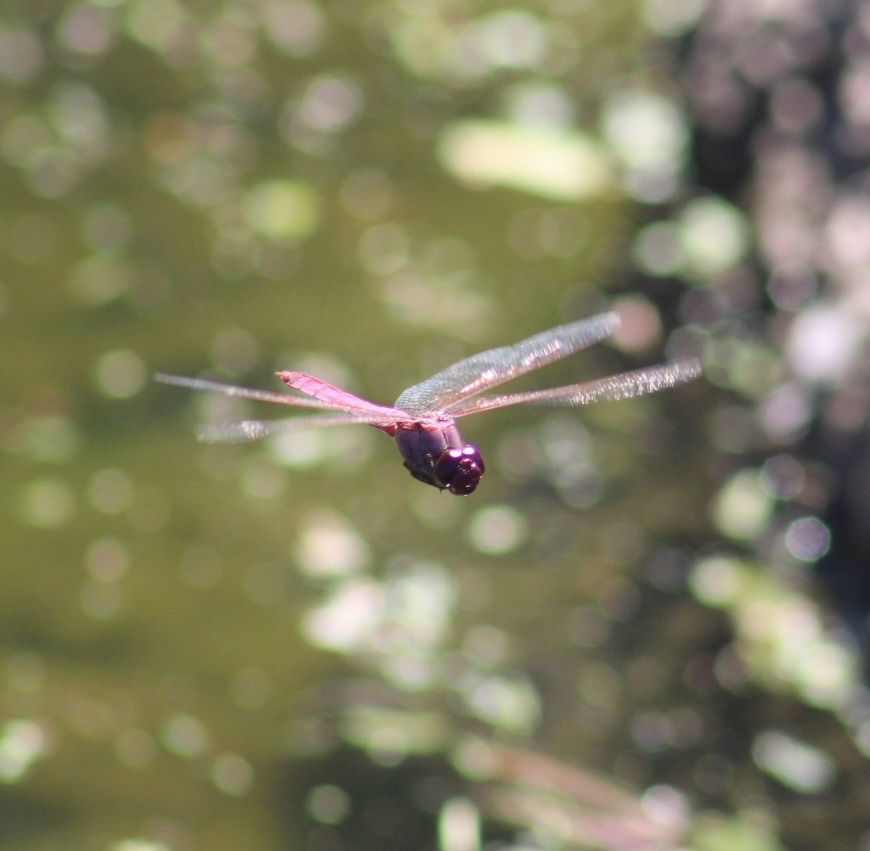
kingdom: Animalia
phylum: Arthropoda
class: Insecta
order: Odonata
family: Libellulidae
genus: Orthemis
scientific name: Orthemis ferruginea
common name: Roseate skimmer
